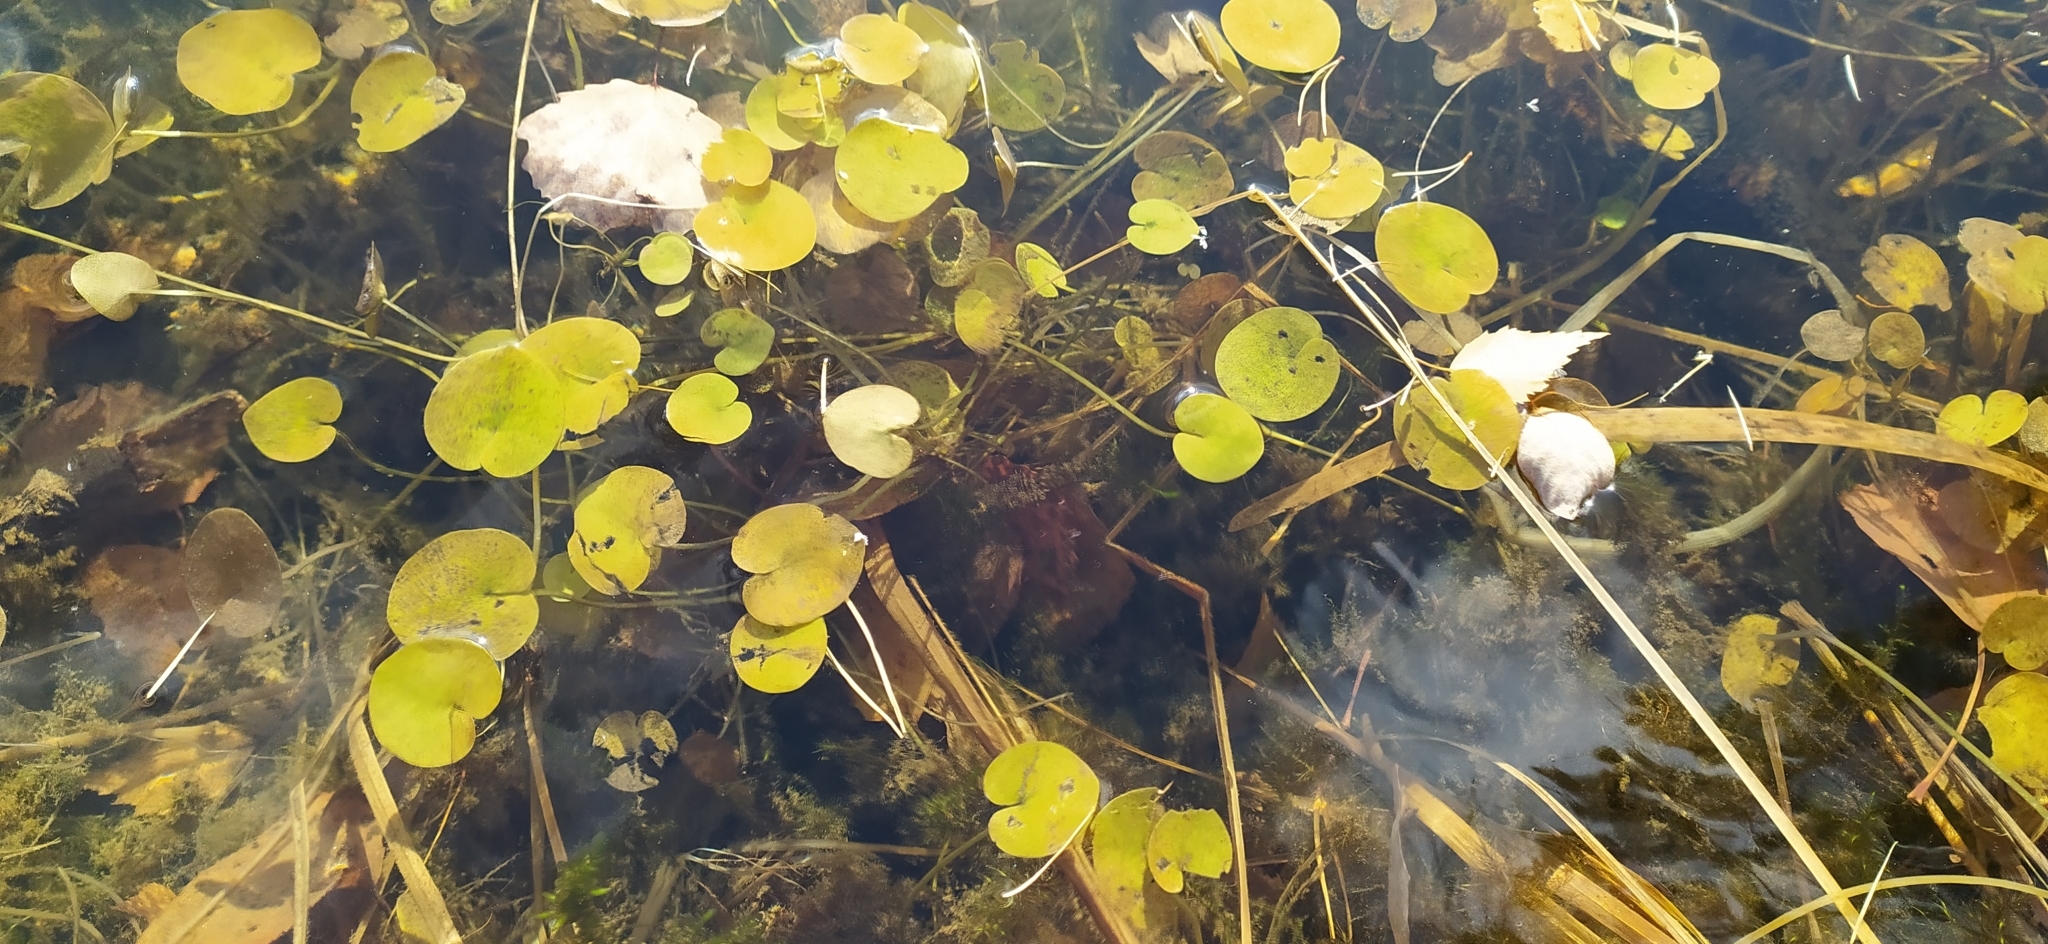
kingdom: Plantae
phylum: Tracheophyta
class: Liliopsida
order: Alismatales
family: Hydrocharitaceae
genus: Hydrocharis
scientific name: Hydrocharis morsus-ranae
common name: Frogbit
